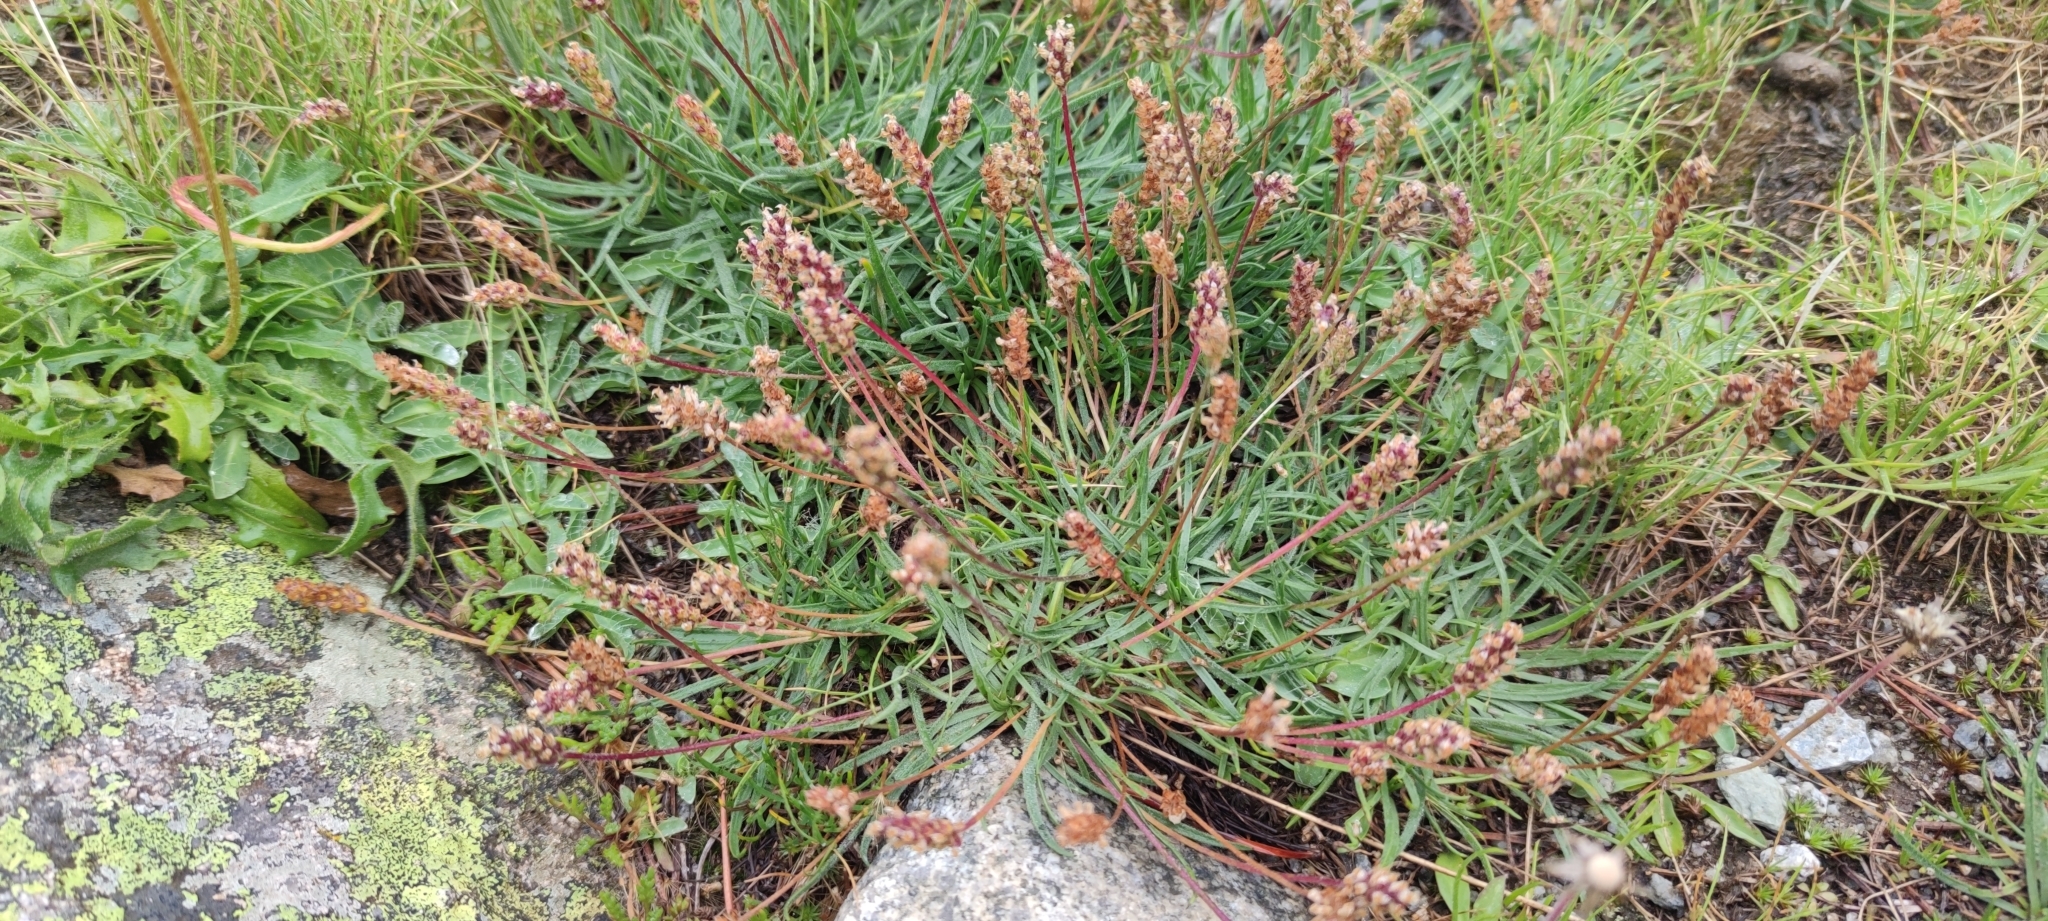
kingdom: Plantae
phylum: Tracheophyta
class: Magnoliopsida
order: Lamiales
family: Plantaginaceae
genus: Plantago
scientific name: Plantago alpina
